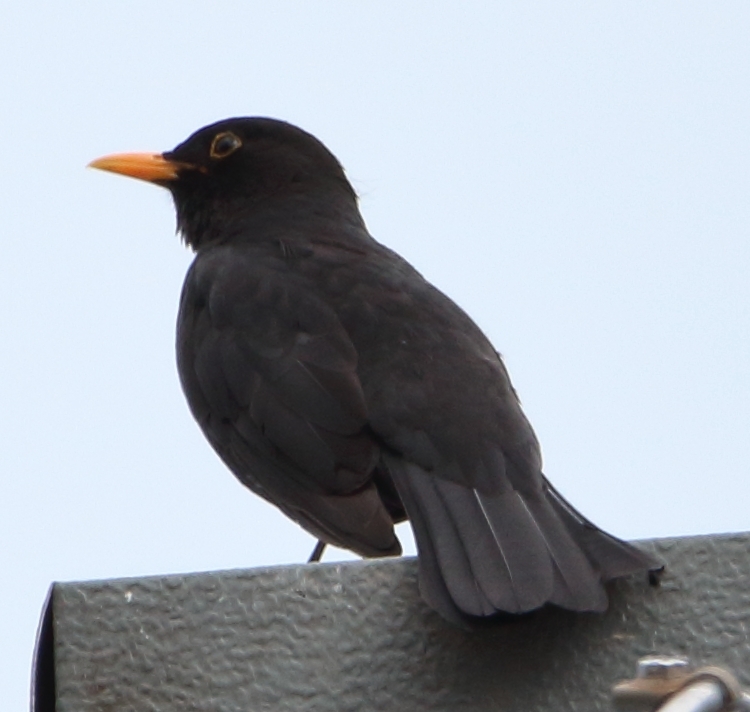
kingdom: Animalia
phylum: Chordata
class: Aves
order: Passeriformes
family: Turdidae
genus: Turdus
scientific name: Turdus merula
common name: Common blackbird
